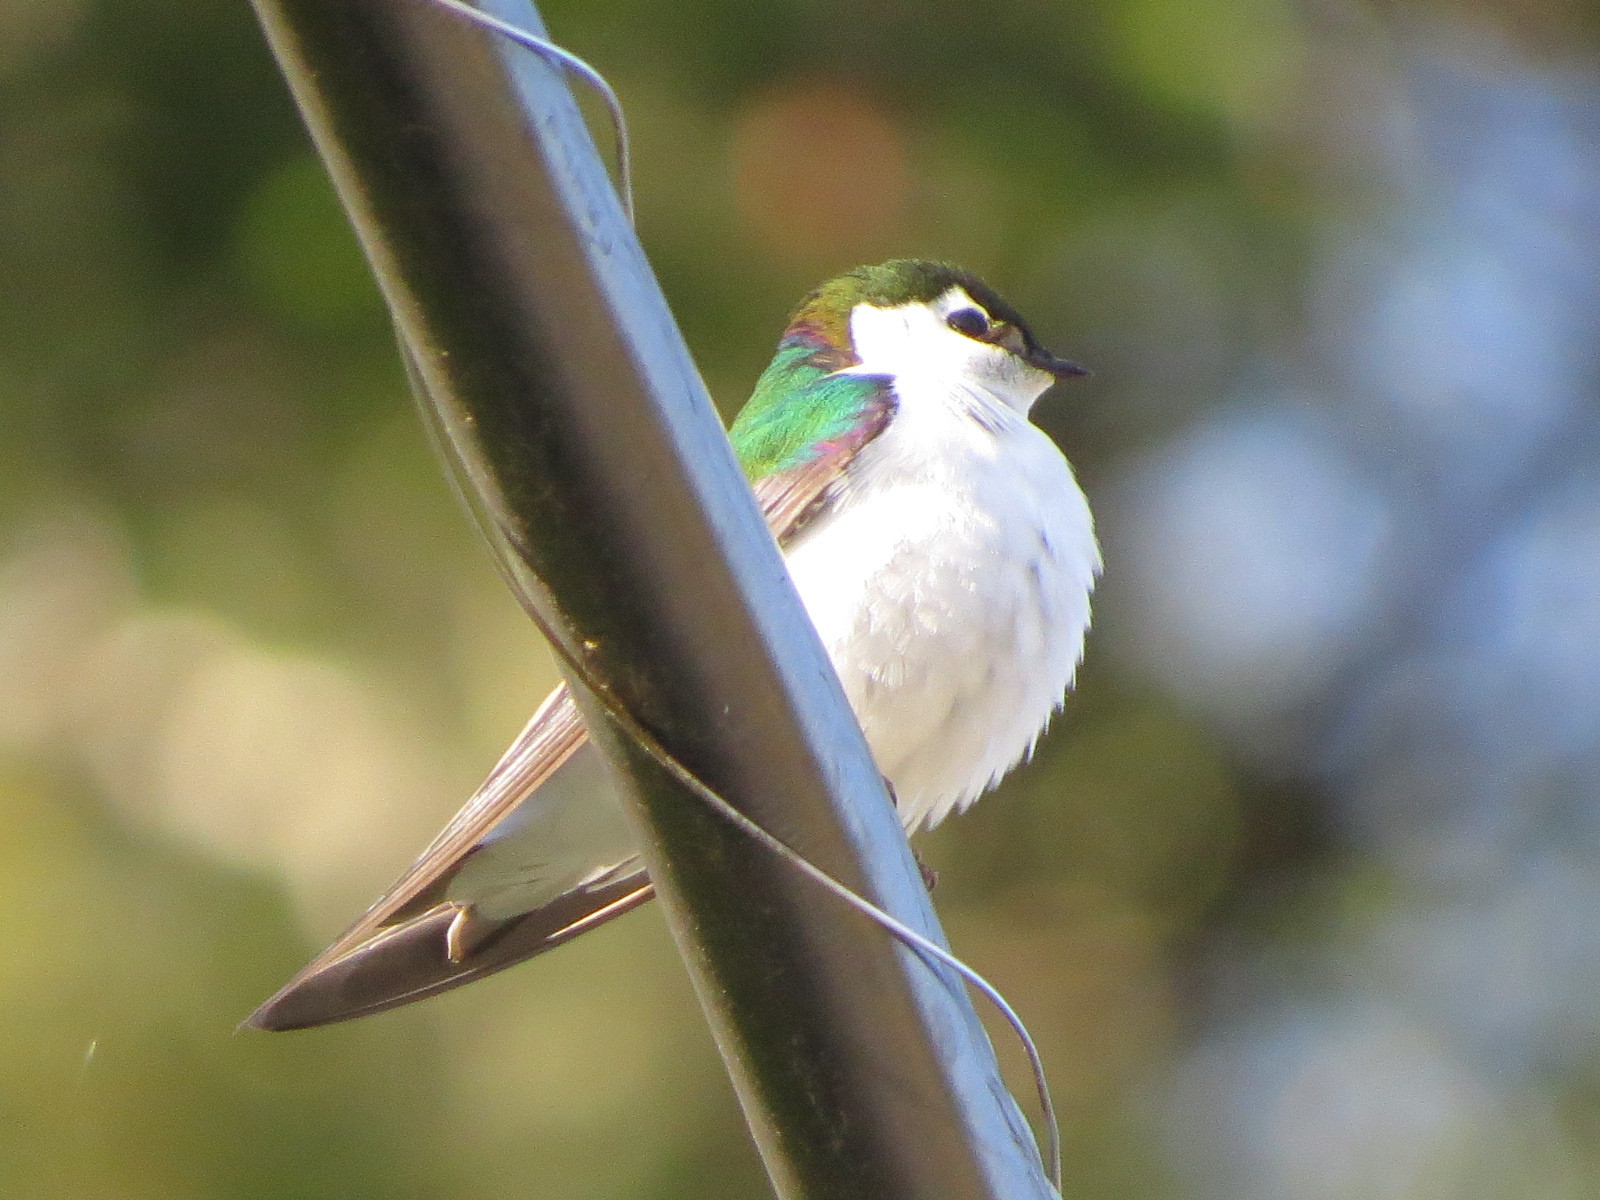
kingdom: Animalia
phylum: Chordata
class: Aves
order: Passeriformes
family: Hirundinidae
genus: Tachycineta
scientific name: Tachycineta thalassina
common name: Violet-green swallow
